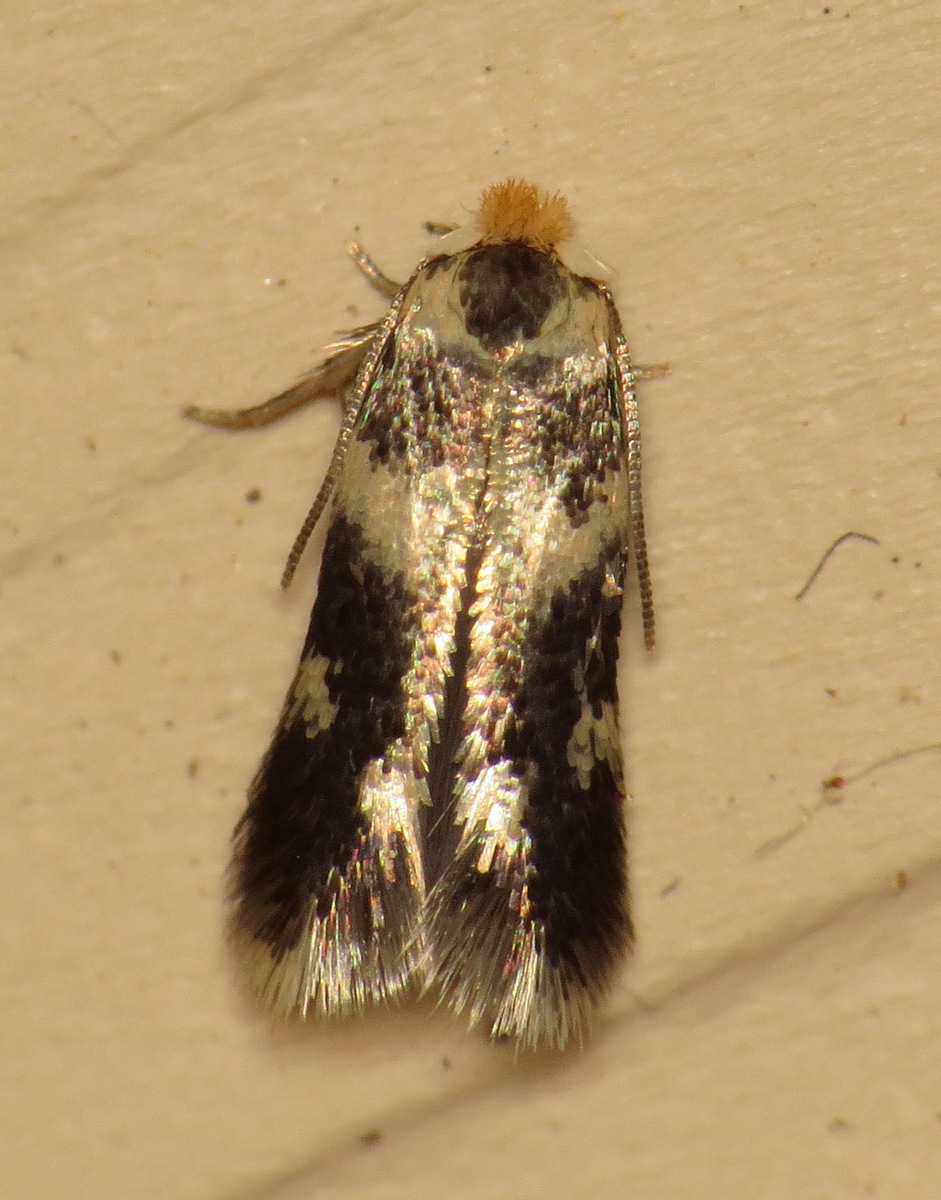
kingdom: Animalia
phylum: Arthropoda
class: Insecta
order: Lepidoptera
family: Nepticulidae
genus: Etainia
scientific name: Etainia sericopeza
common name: Leafminer
